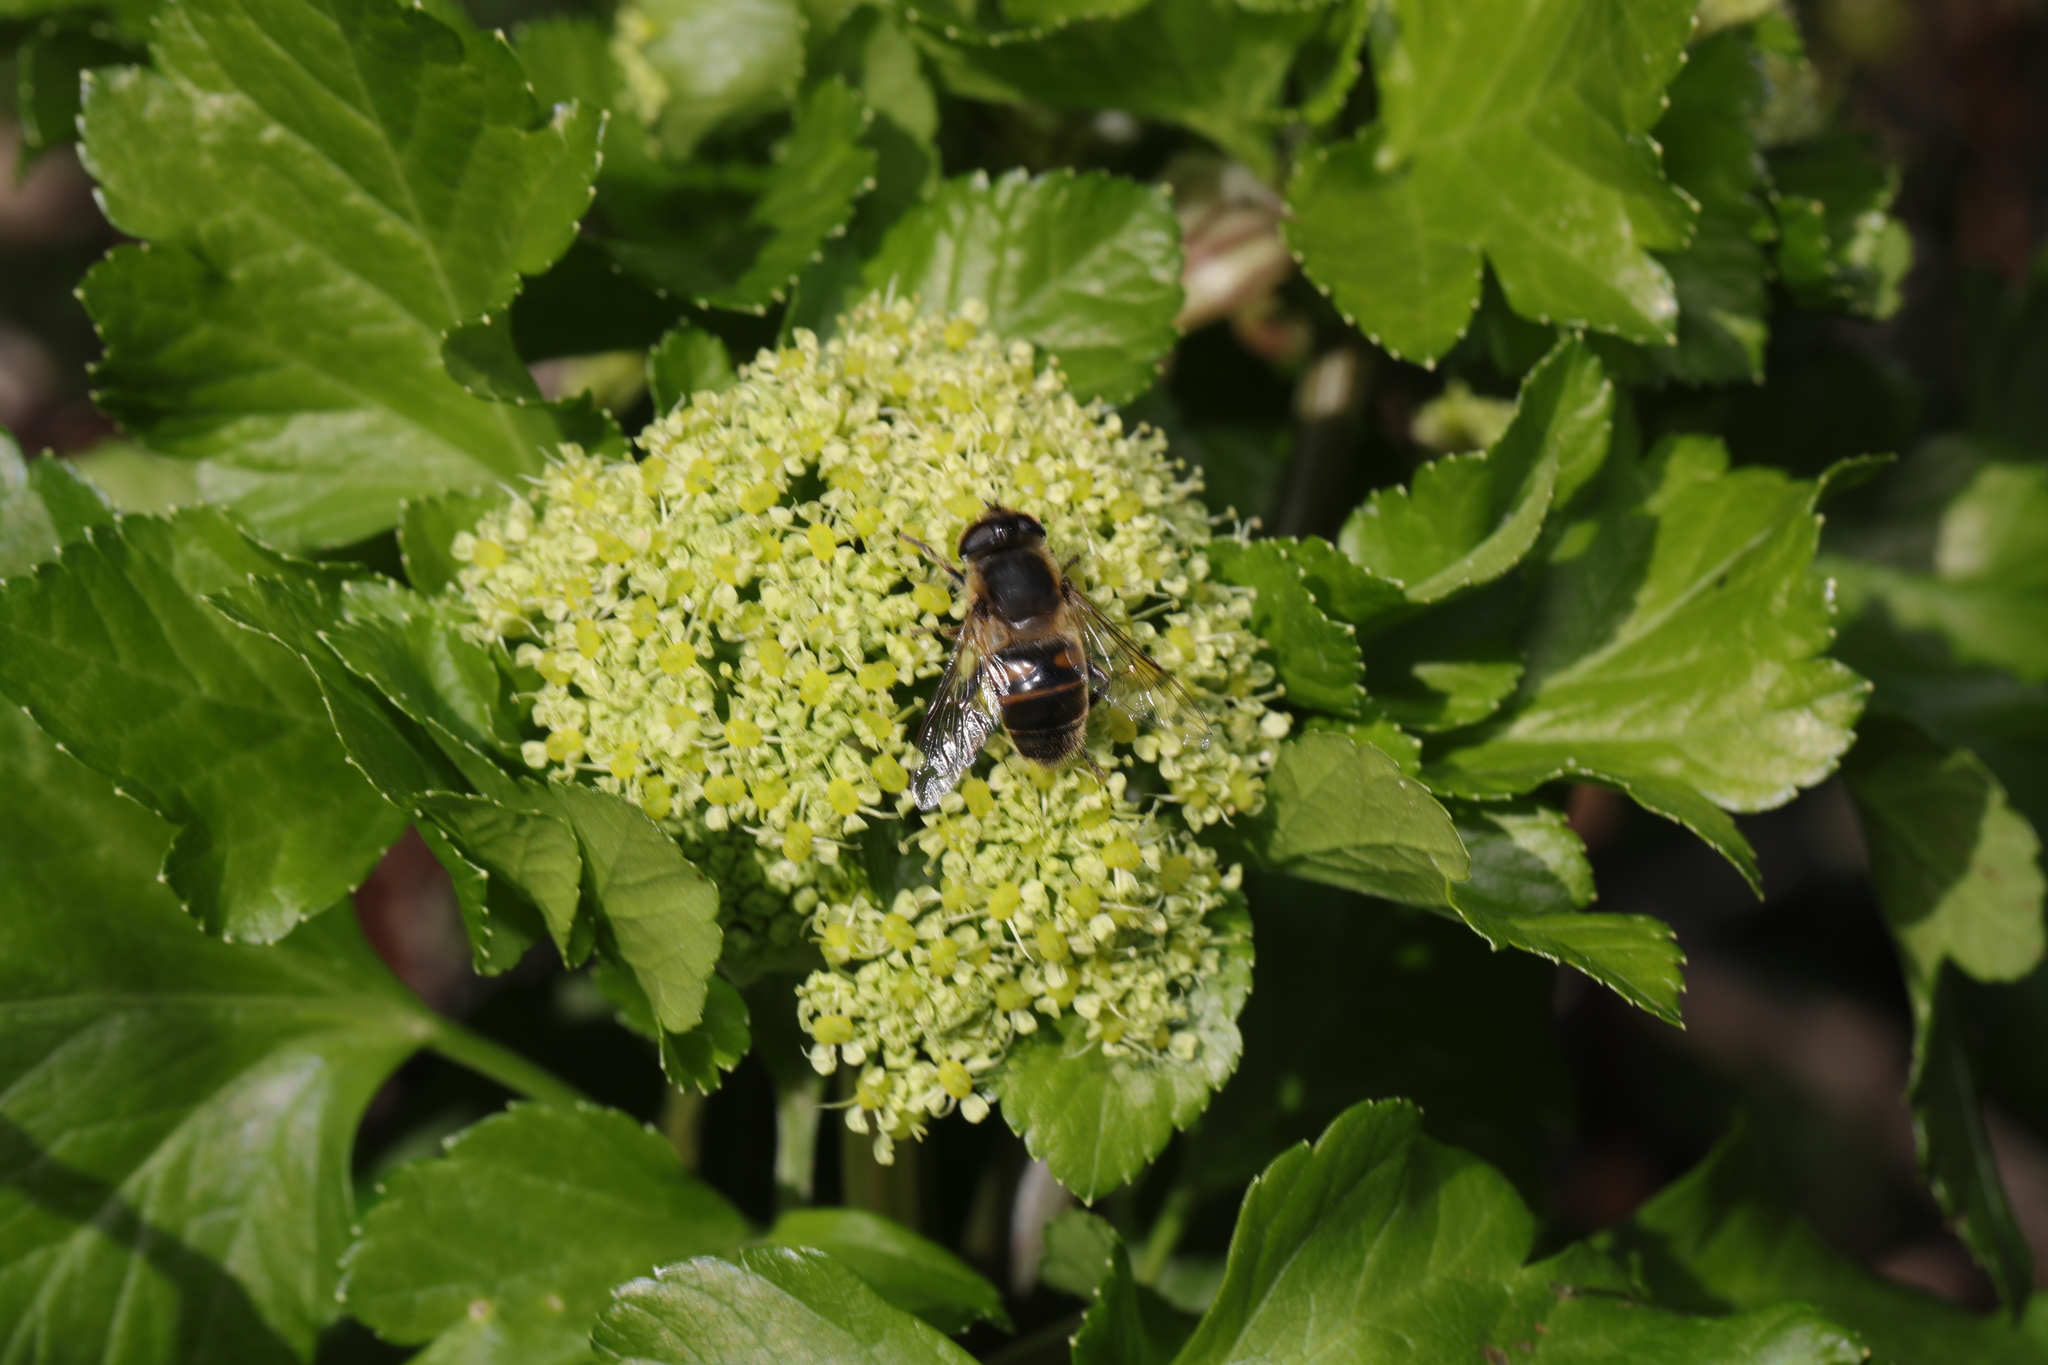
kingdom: Plantae
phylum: Tracheophyta
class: Magnoliopsida
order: Apiales
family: Apiaceae
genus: Smyrnium
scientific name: Smyrnium olusatrum
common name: Alexanders
